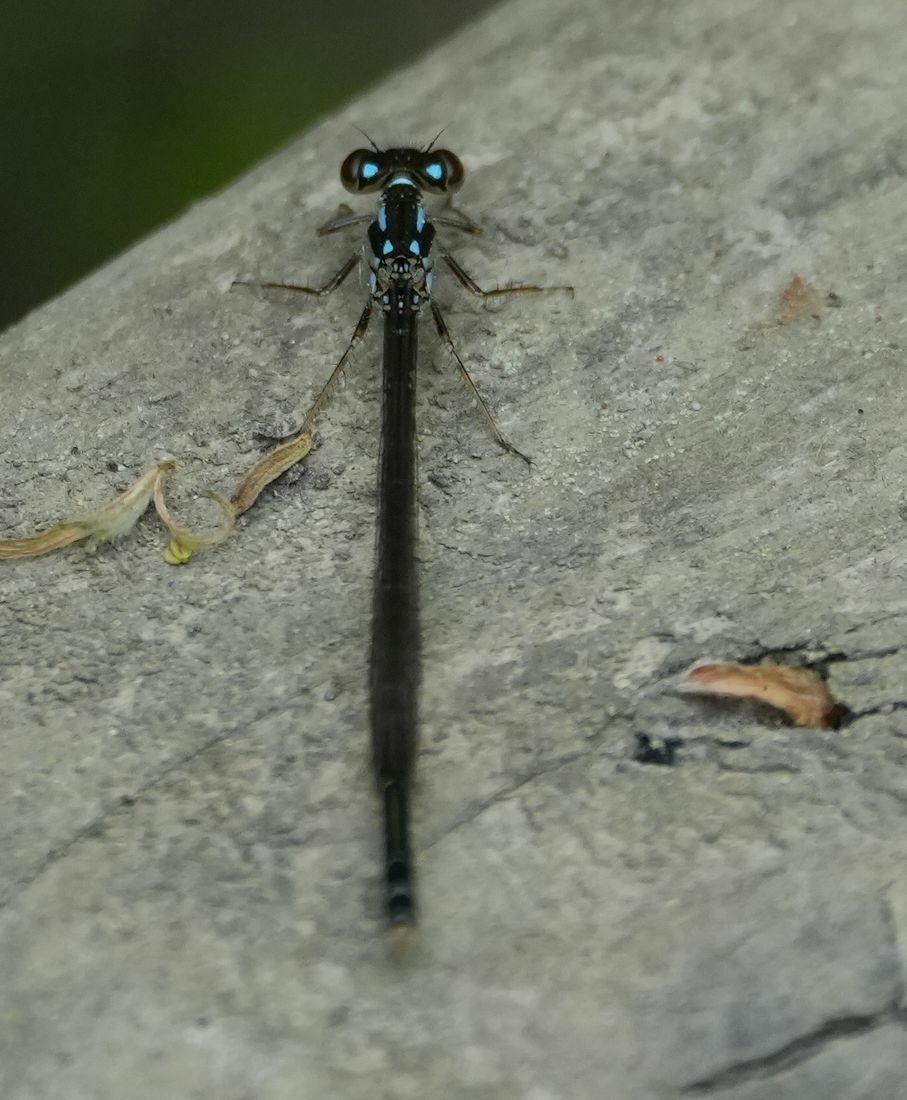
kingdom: Animalia
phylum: Arthropoda
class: Insecta
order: Odonata
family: Coenagrionidae
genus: Ischnura
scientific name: Ischnura posita
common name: Fragile forktail
